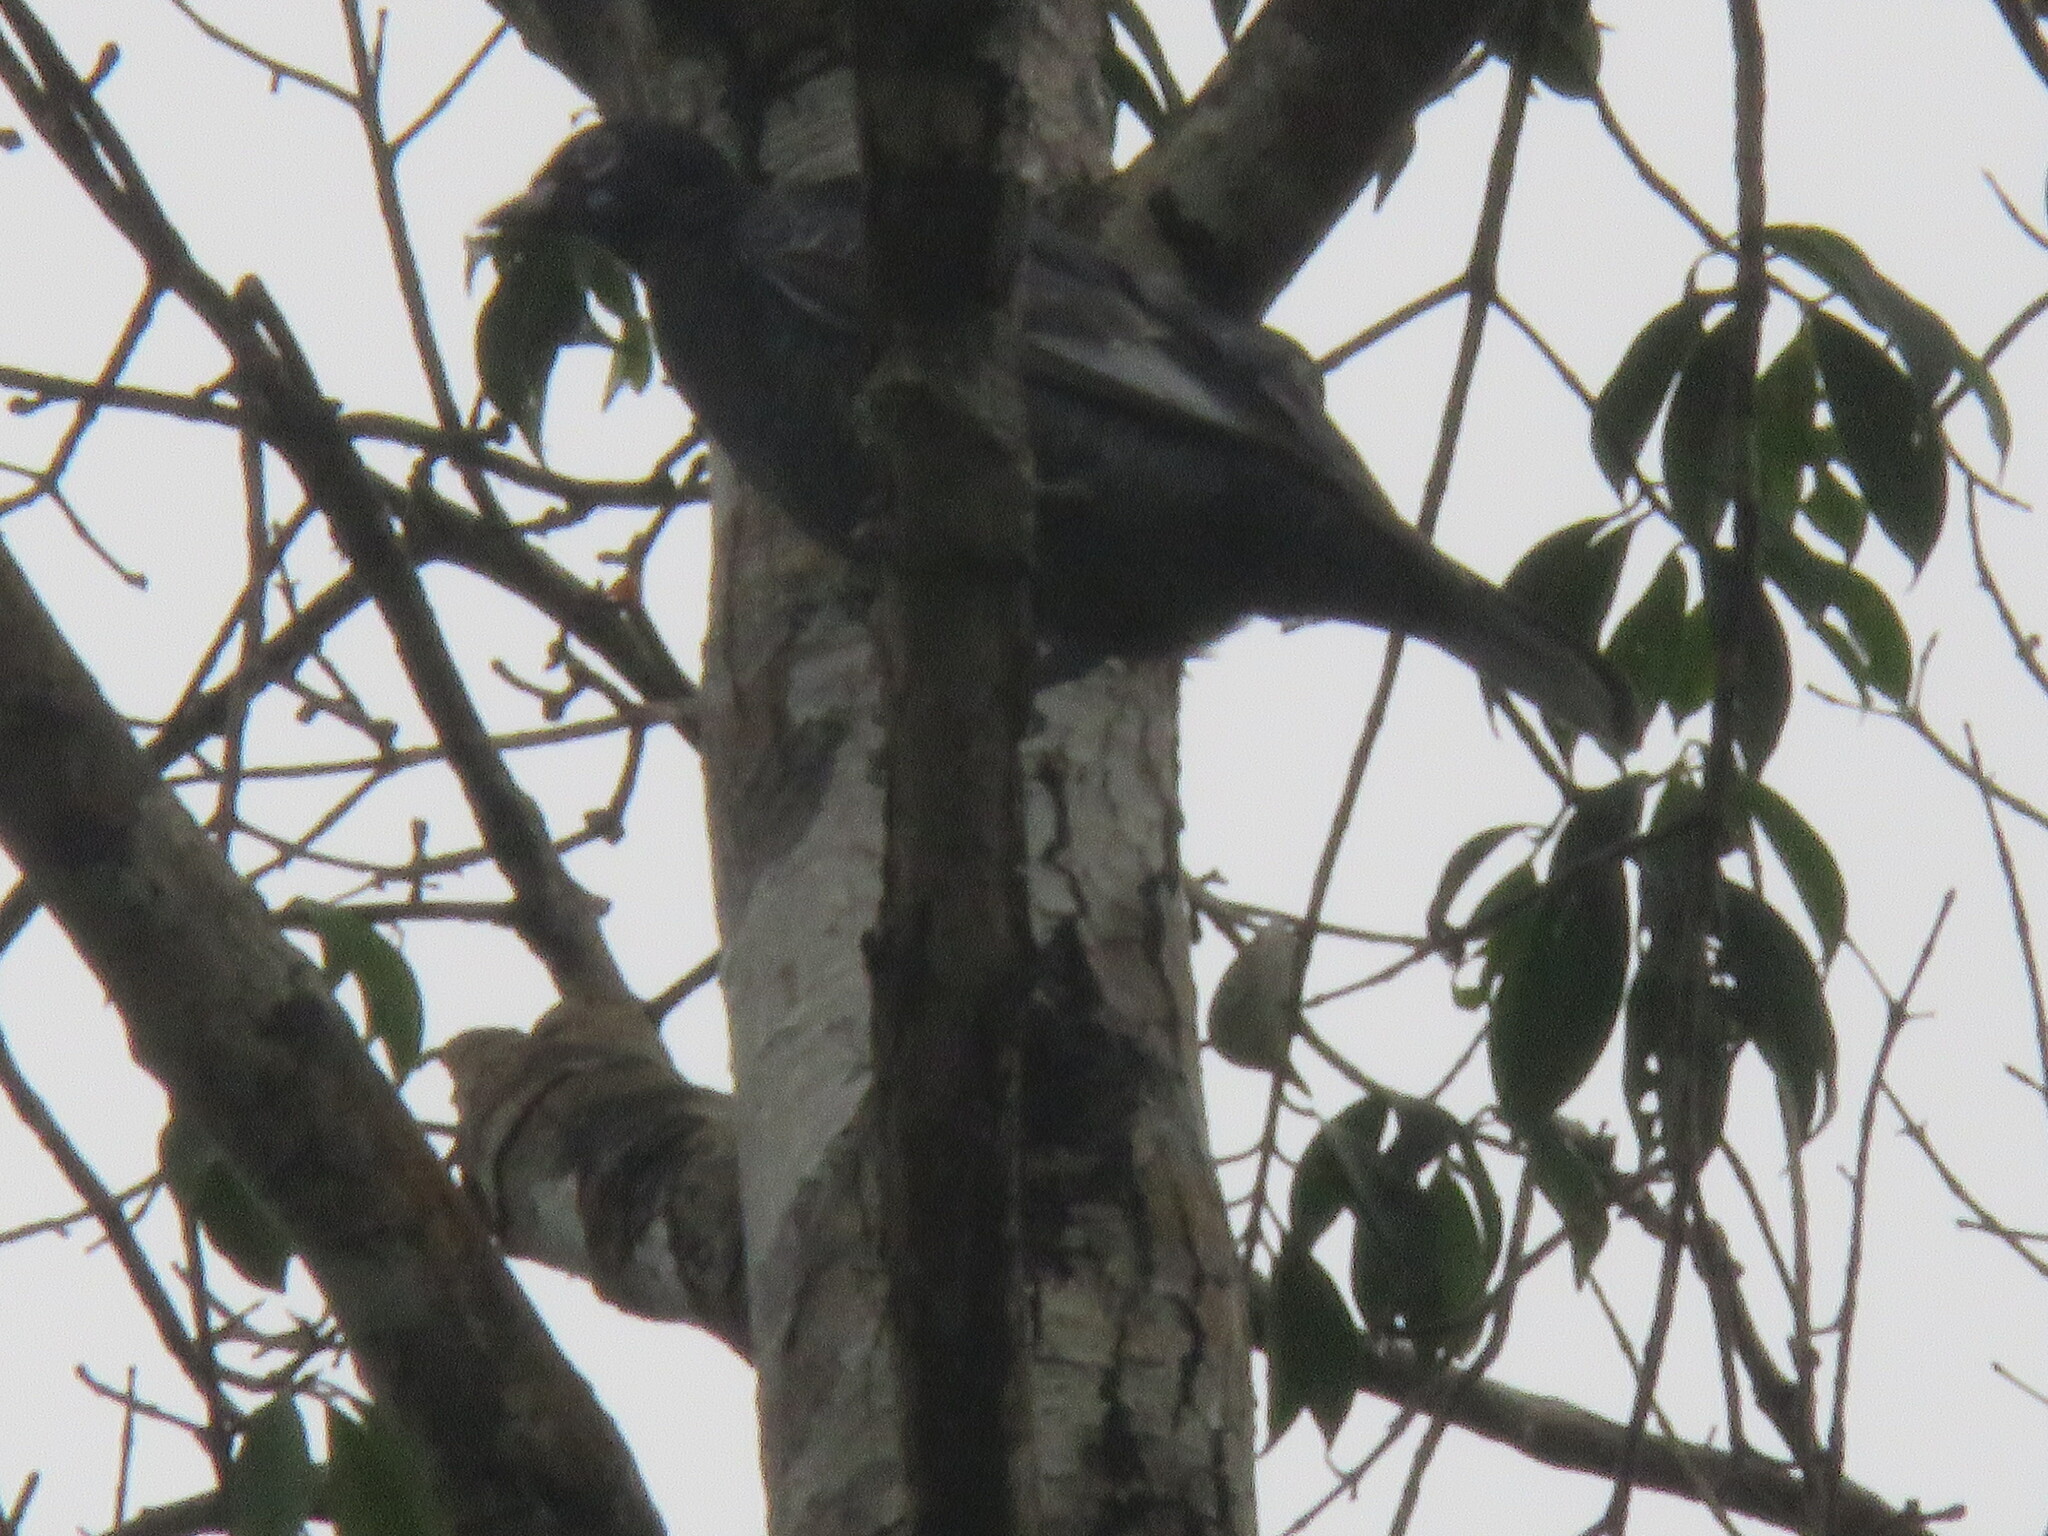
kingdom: Animalia
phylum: Chordata
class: Aves
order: Passeriformes
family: Cotingidae
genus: Gymnoderus
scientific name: Gymnoderus foetidus
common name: Bare-necked fruitcrow
